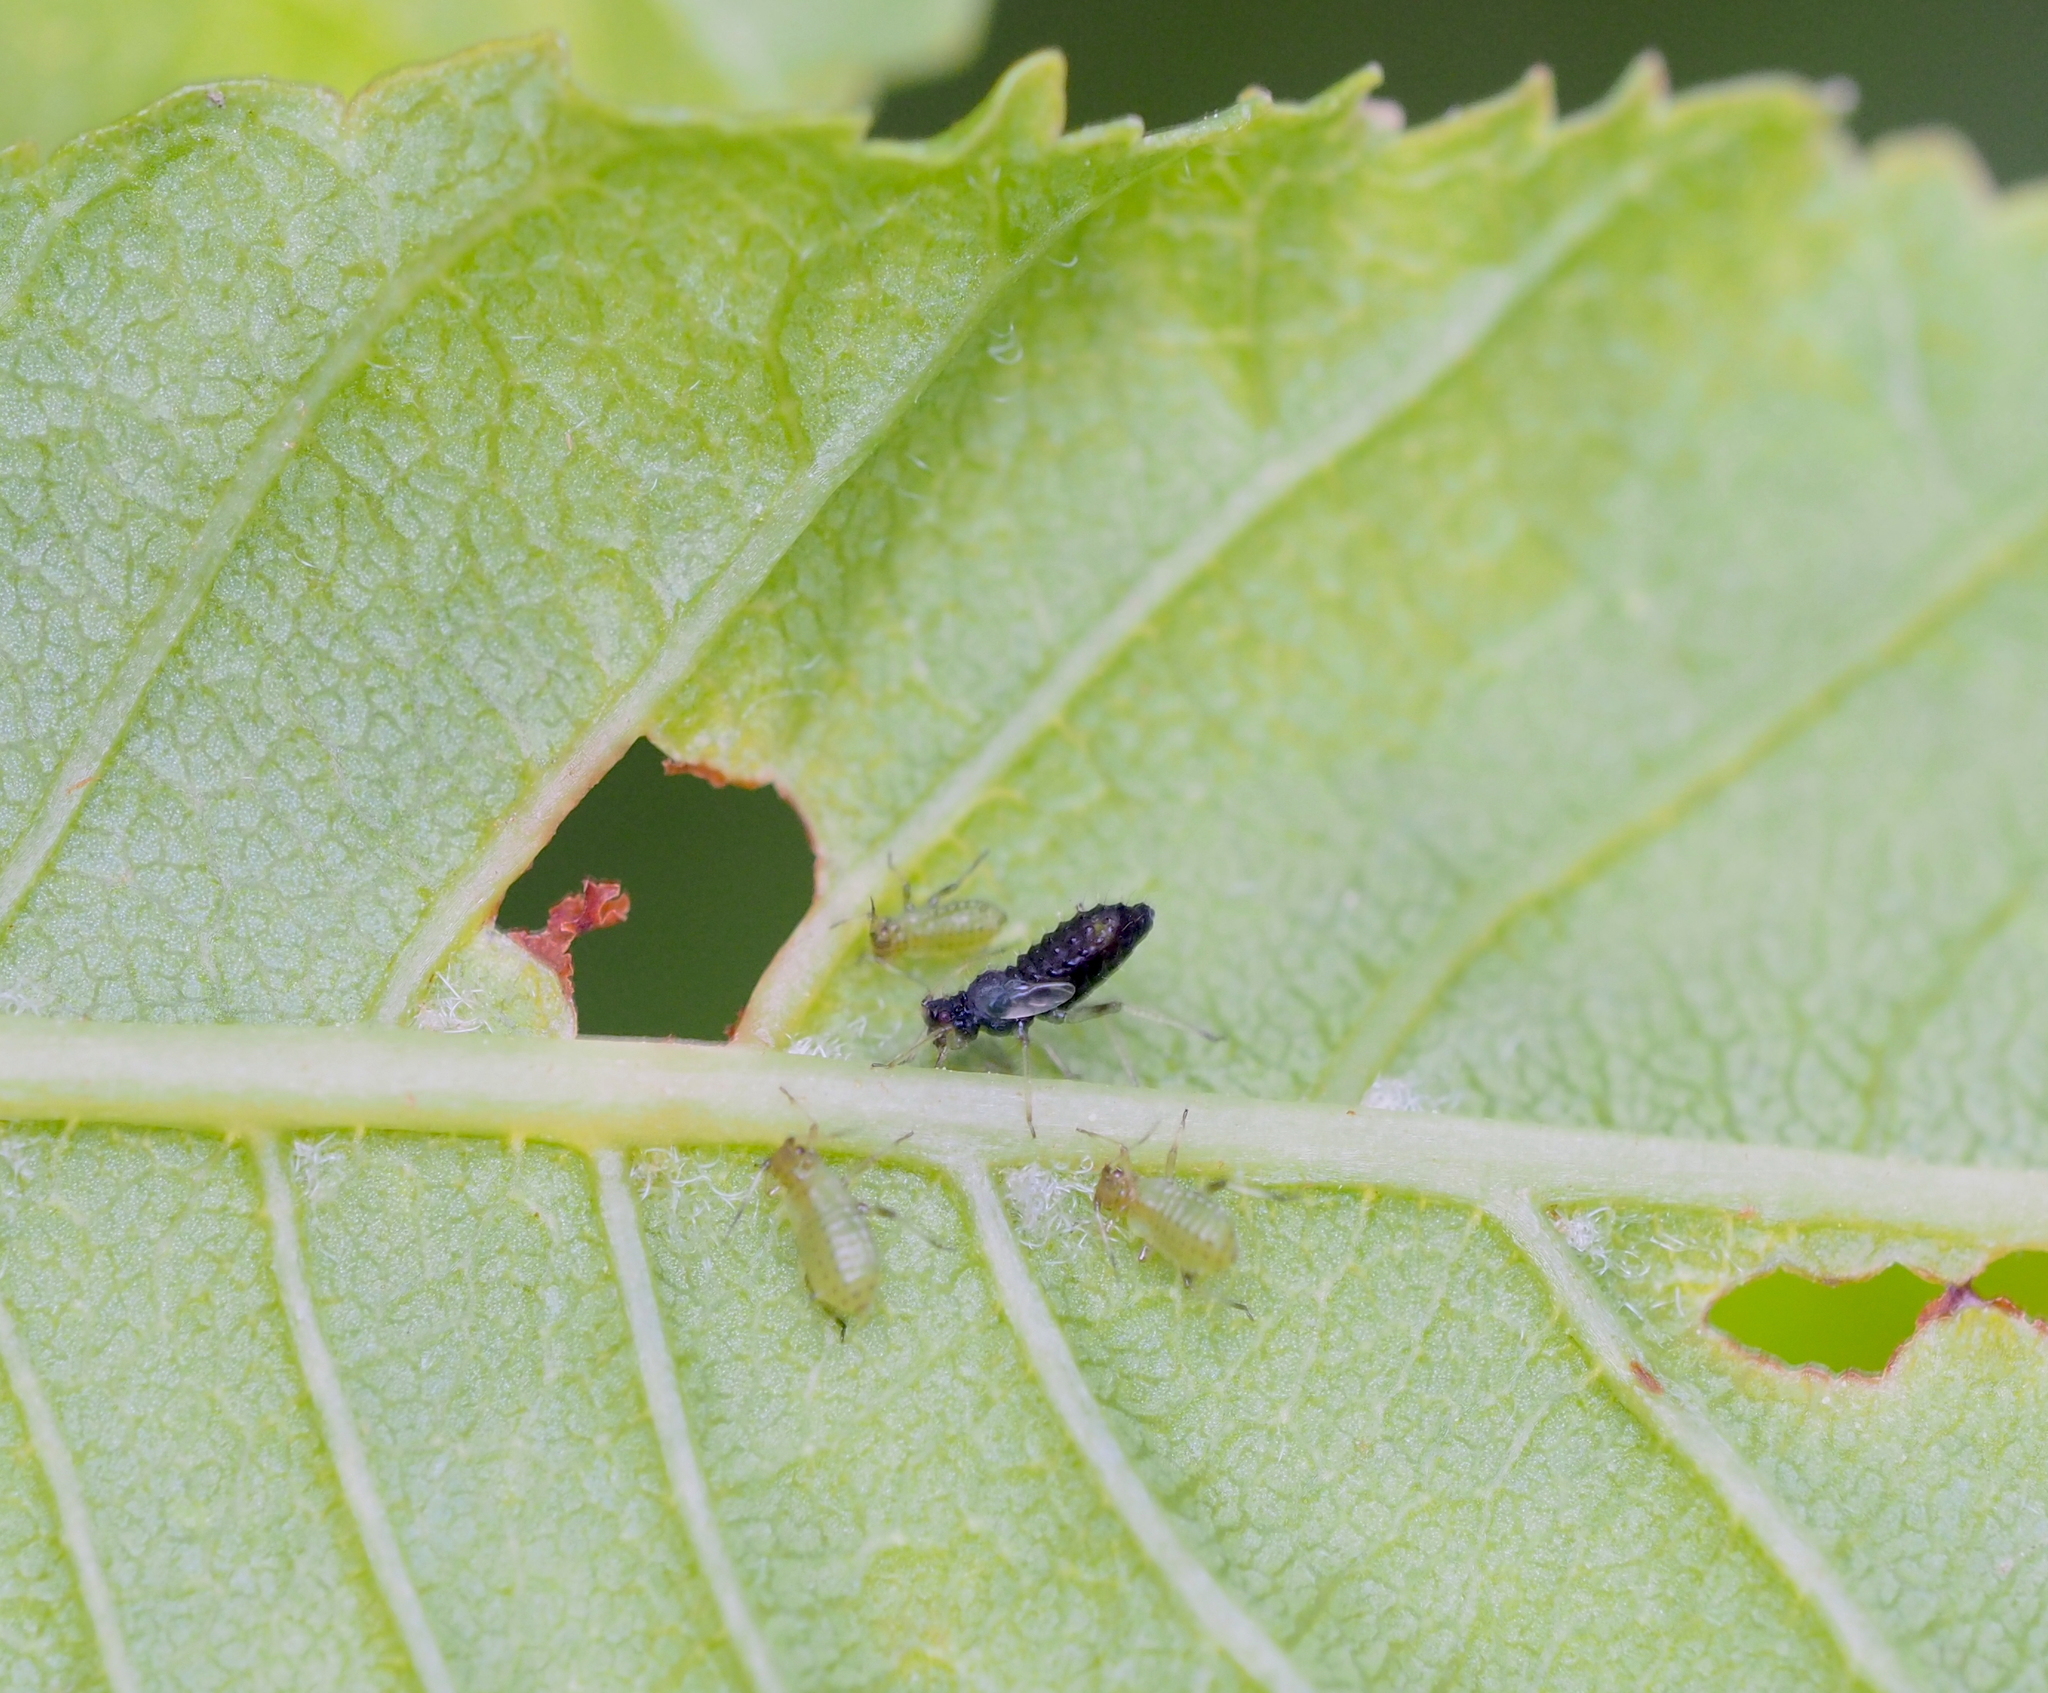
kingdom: Animalia
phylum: Arthropoda
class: Insecta
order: Hemiptera
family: Aphididae
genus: Periphyllus
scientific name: Periphyllus testudinaceus
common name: Common maple aphid
